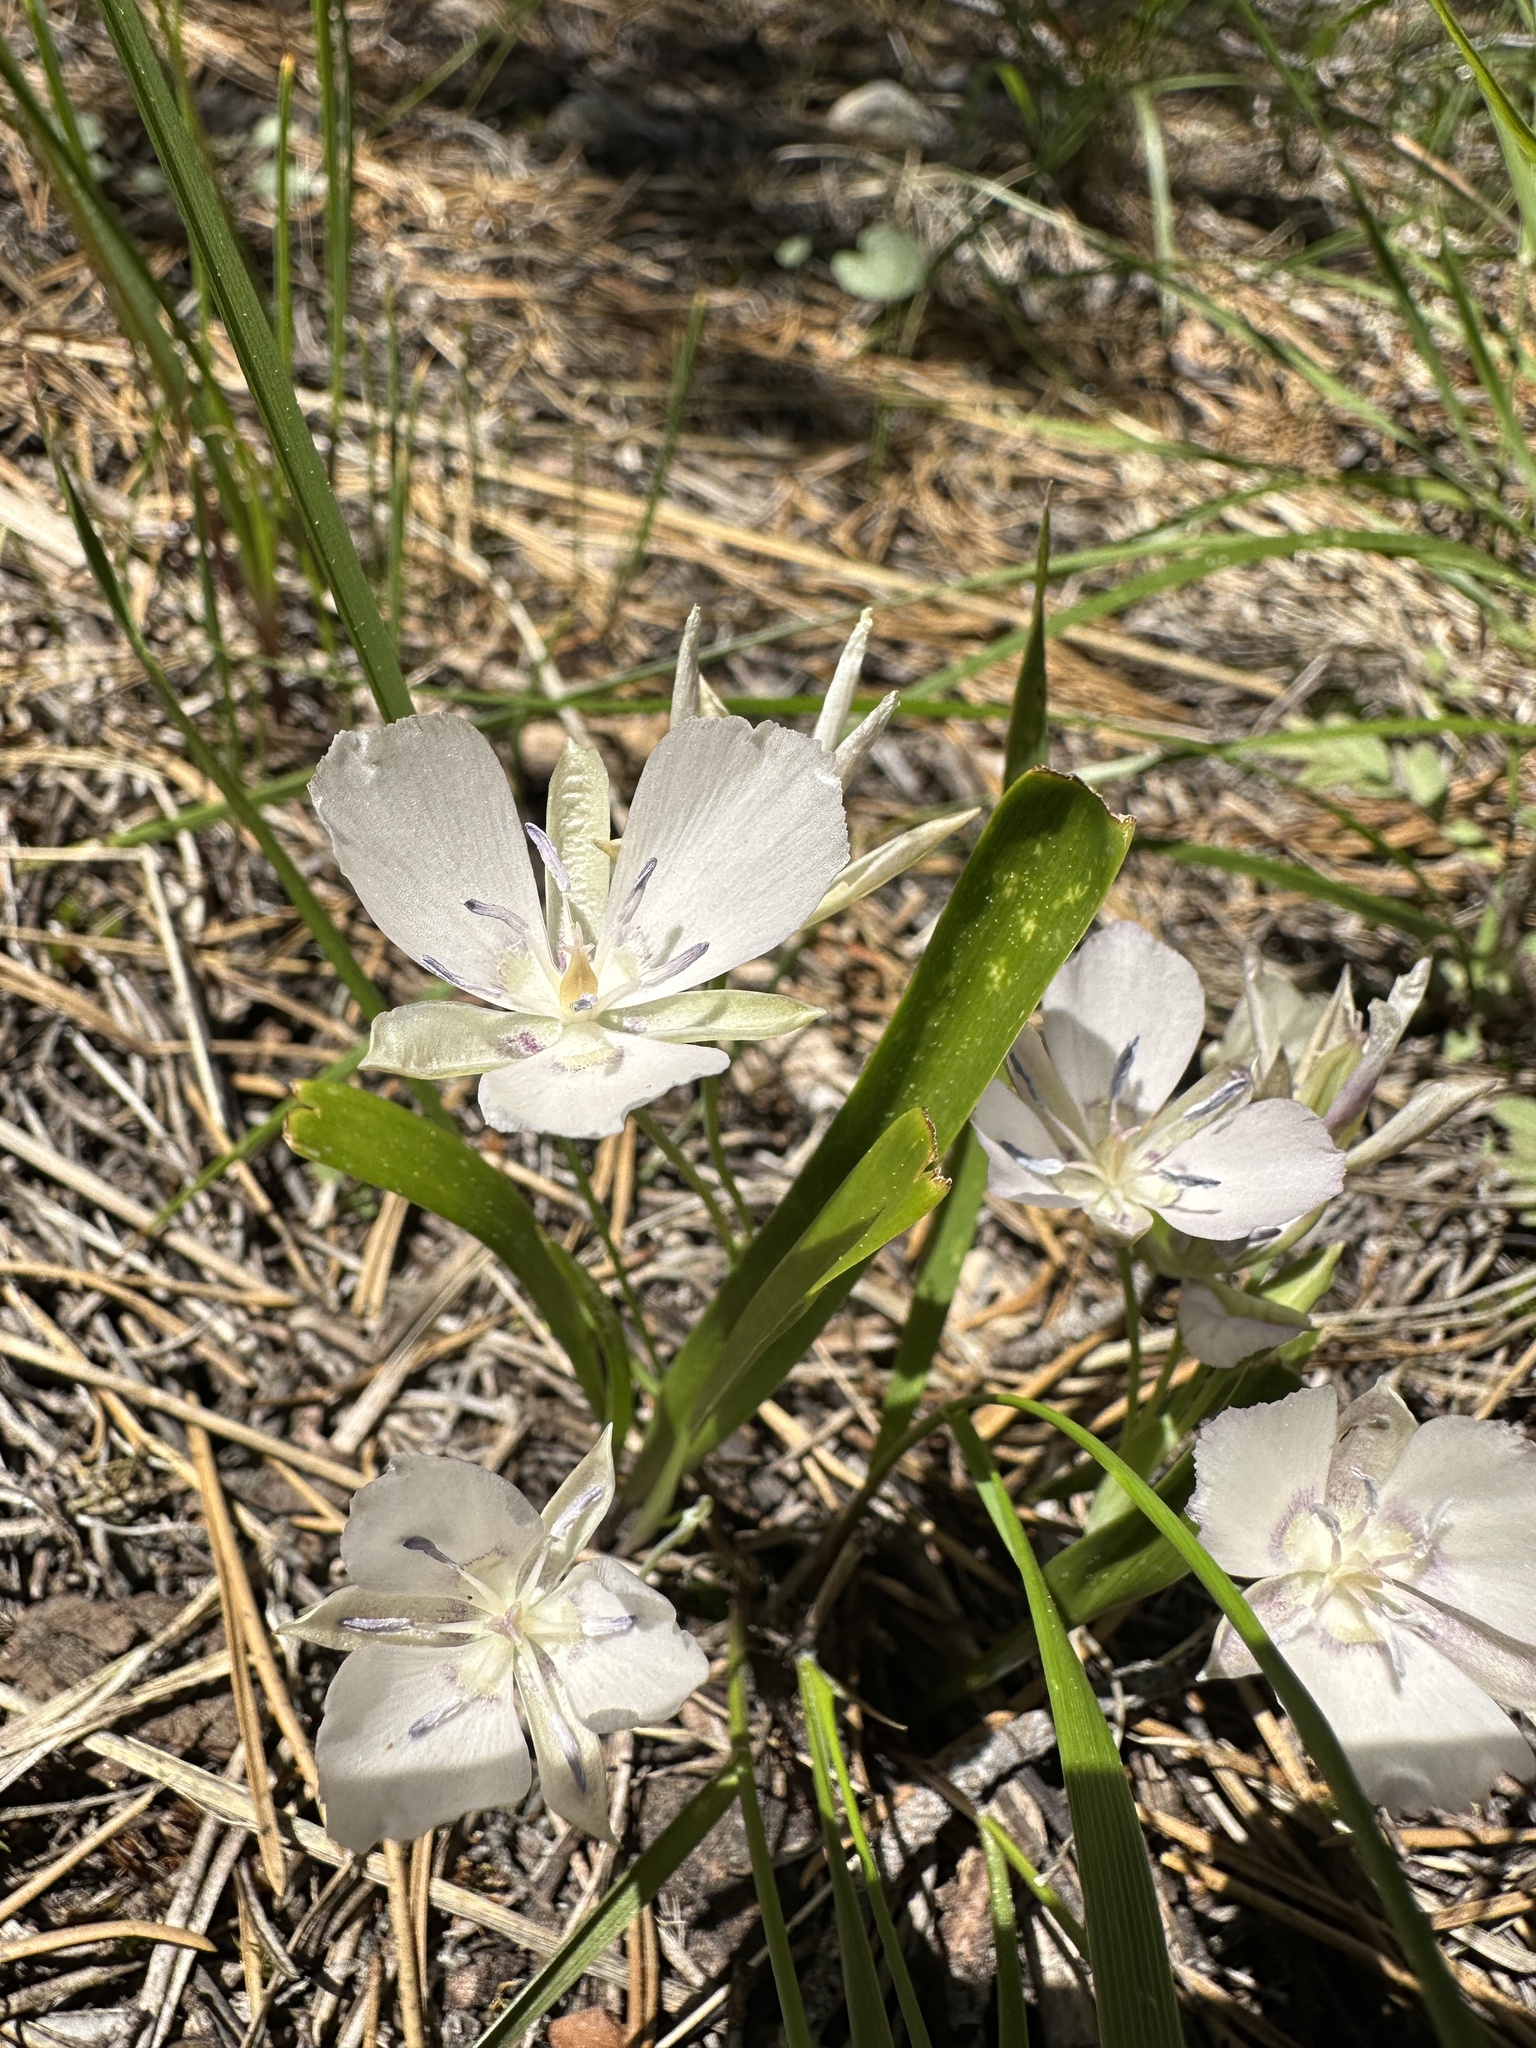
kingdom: Plantae
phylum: Tracheophyta
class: Liliopsida
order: Liliales
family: Liliaceae
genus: Calochortus
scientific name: Calochortus minimus
